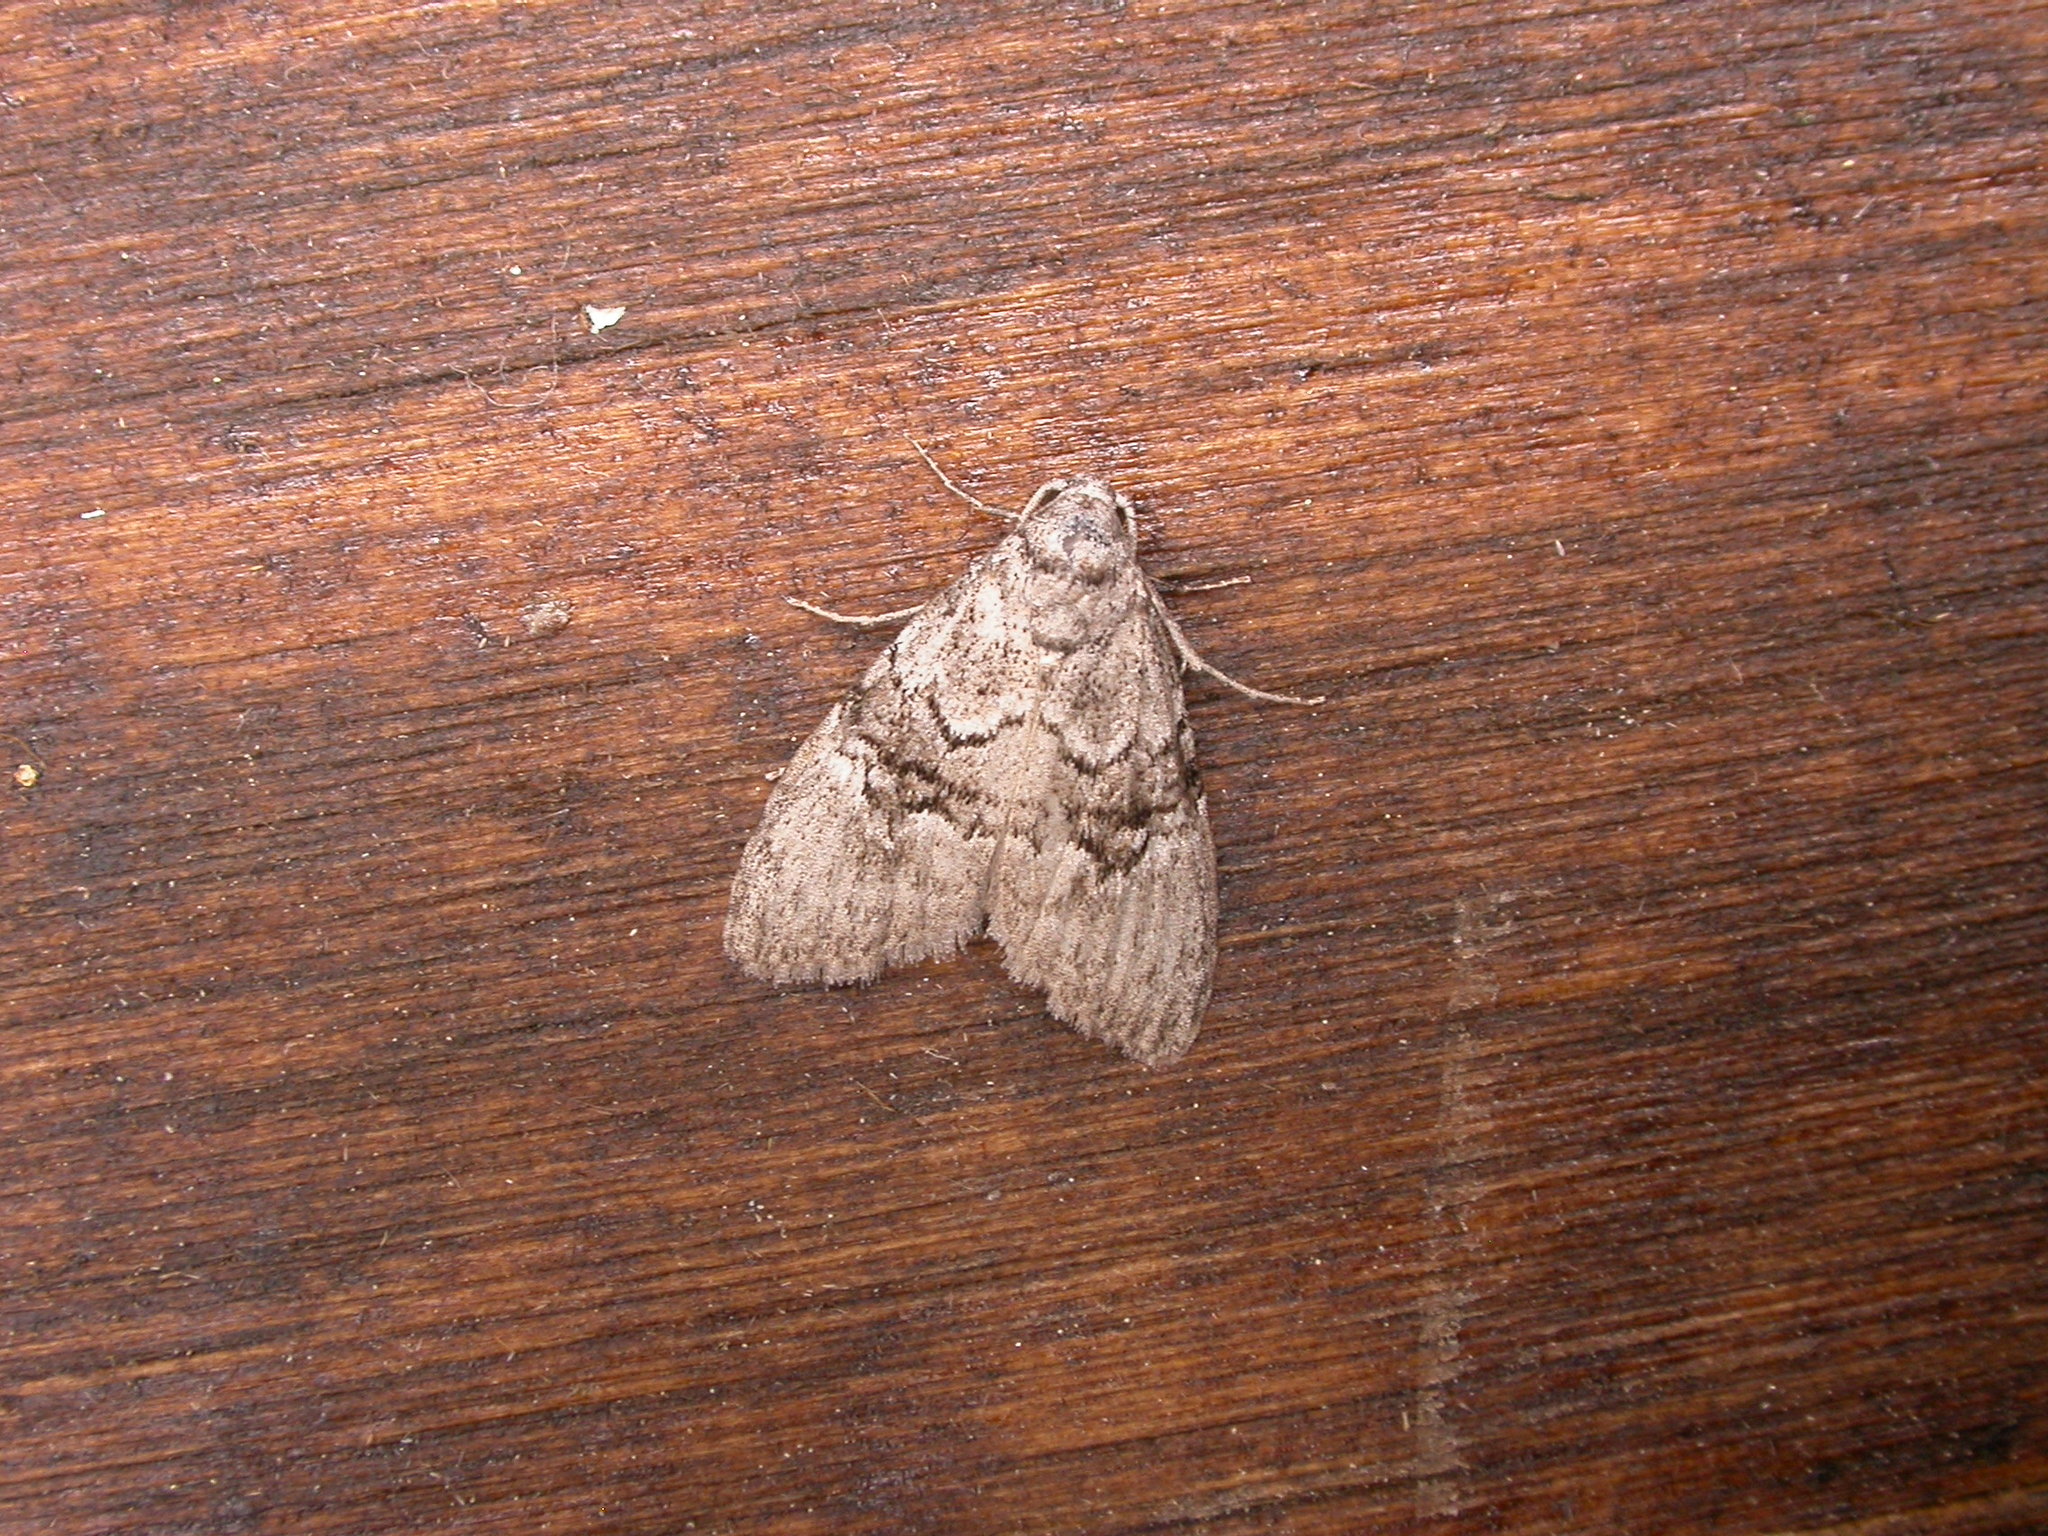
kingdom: Animalia
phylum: Arthropoda
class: Insecta
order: Lepidoptera
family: Nolidae
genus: Uraba
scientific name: Uraba lugens
